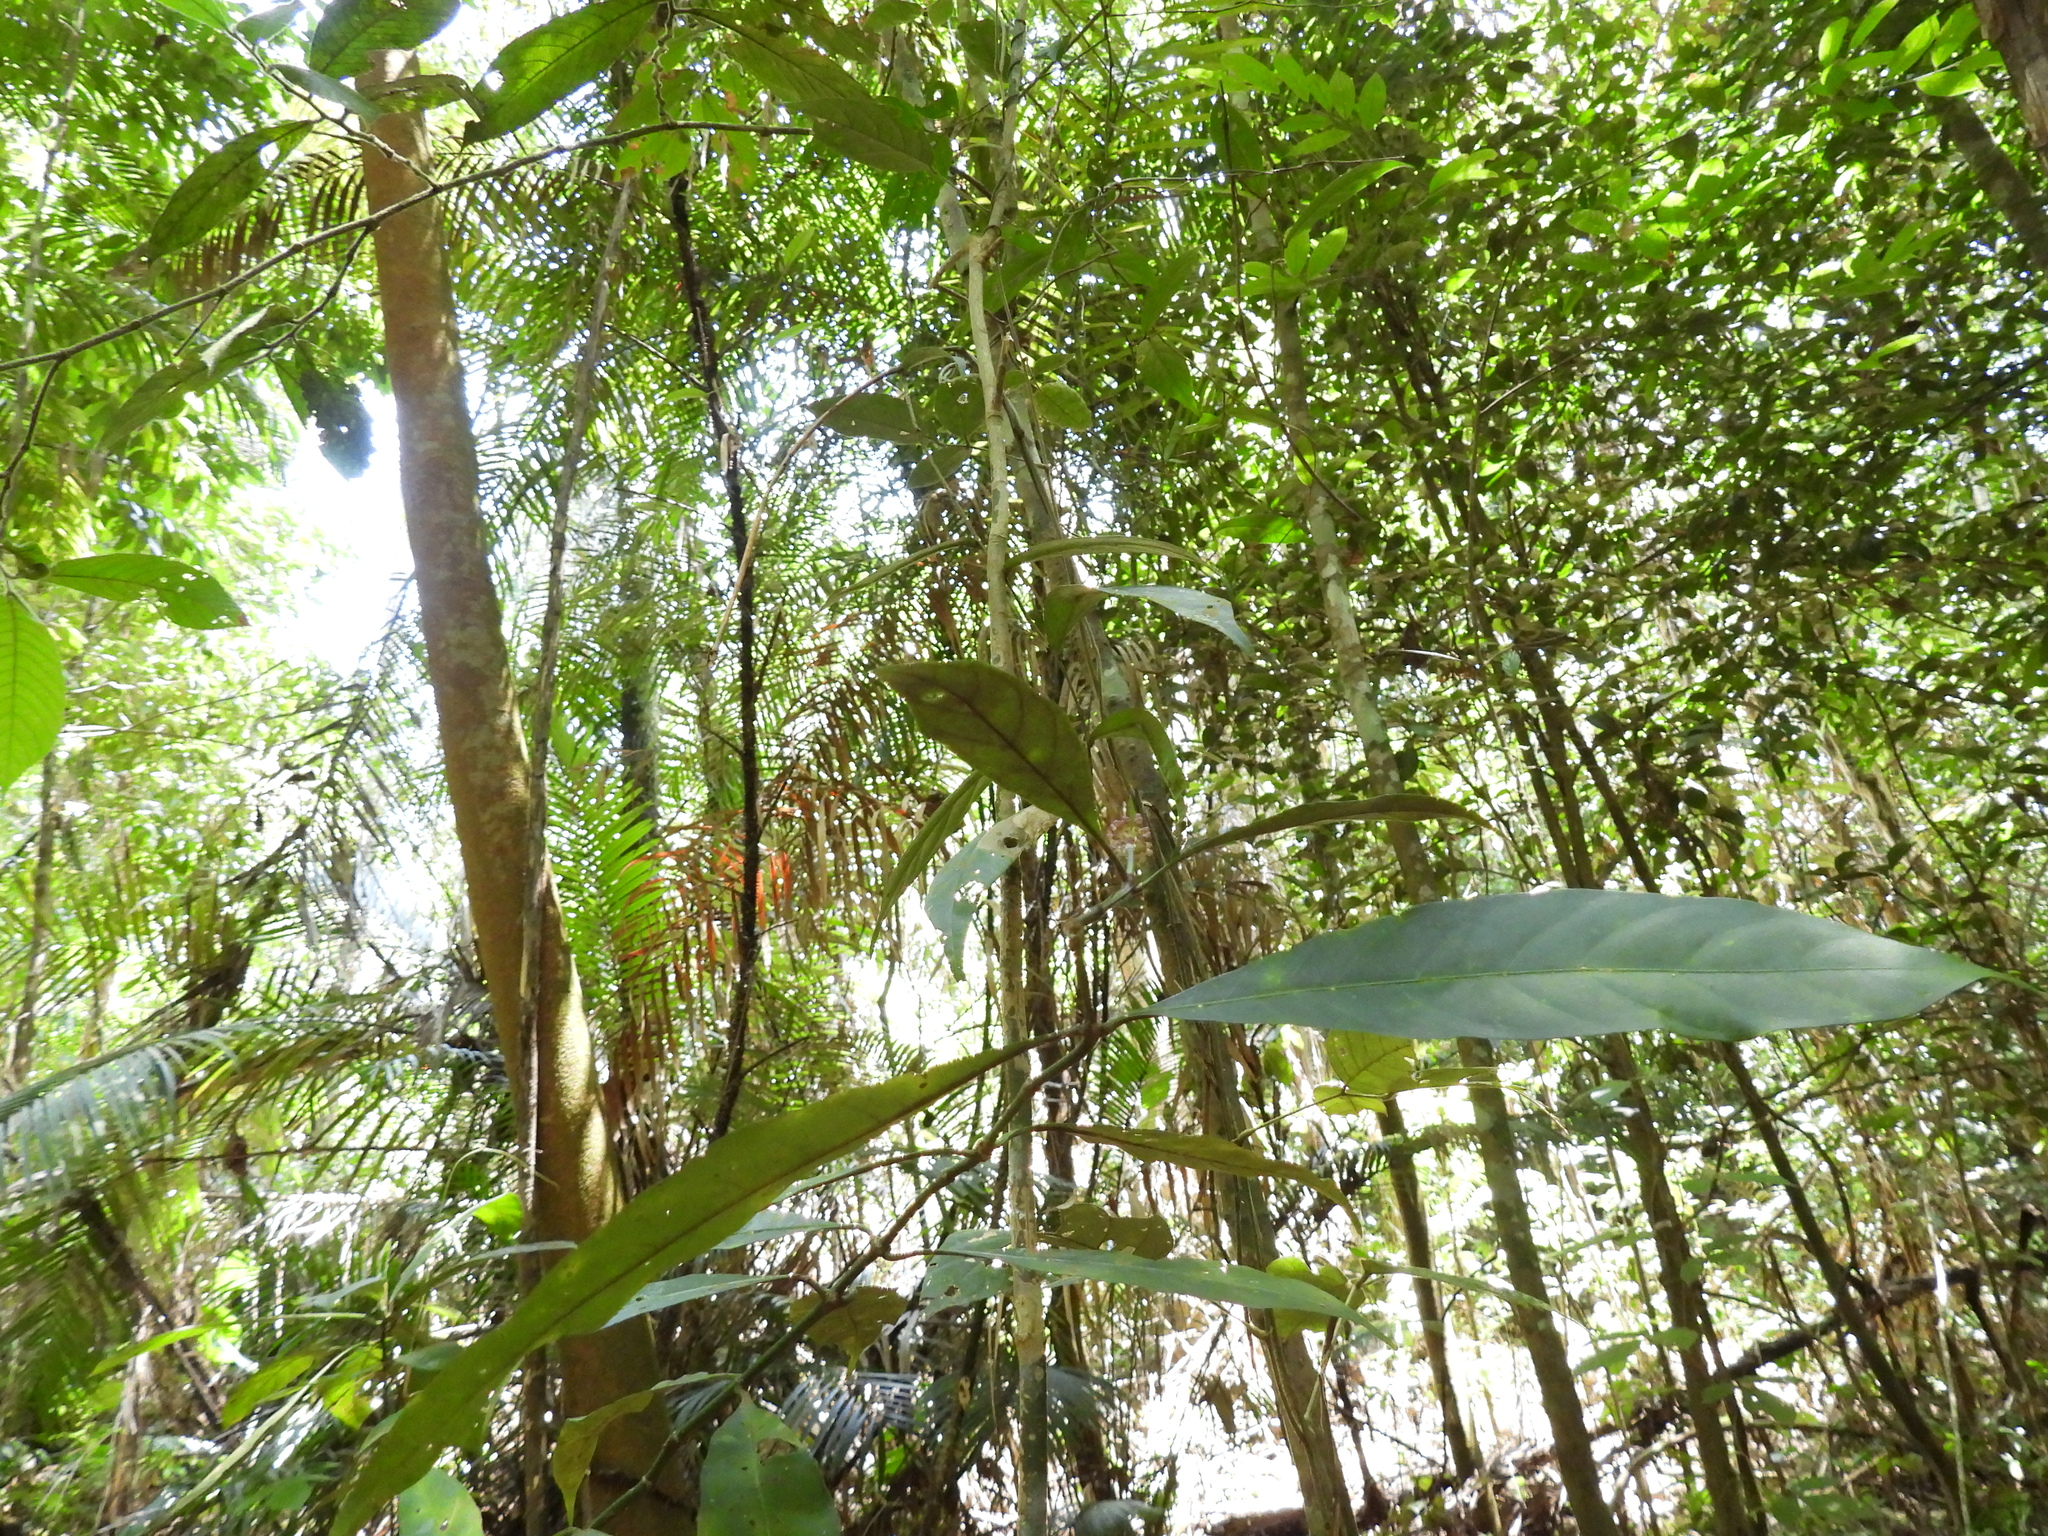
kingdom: Plantae
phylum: Tracheophyta
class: Magnoliopsida
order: Gentianales
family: Rubiaceae
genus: Chassalia
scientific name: Chassalia curviflora
